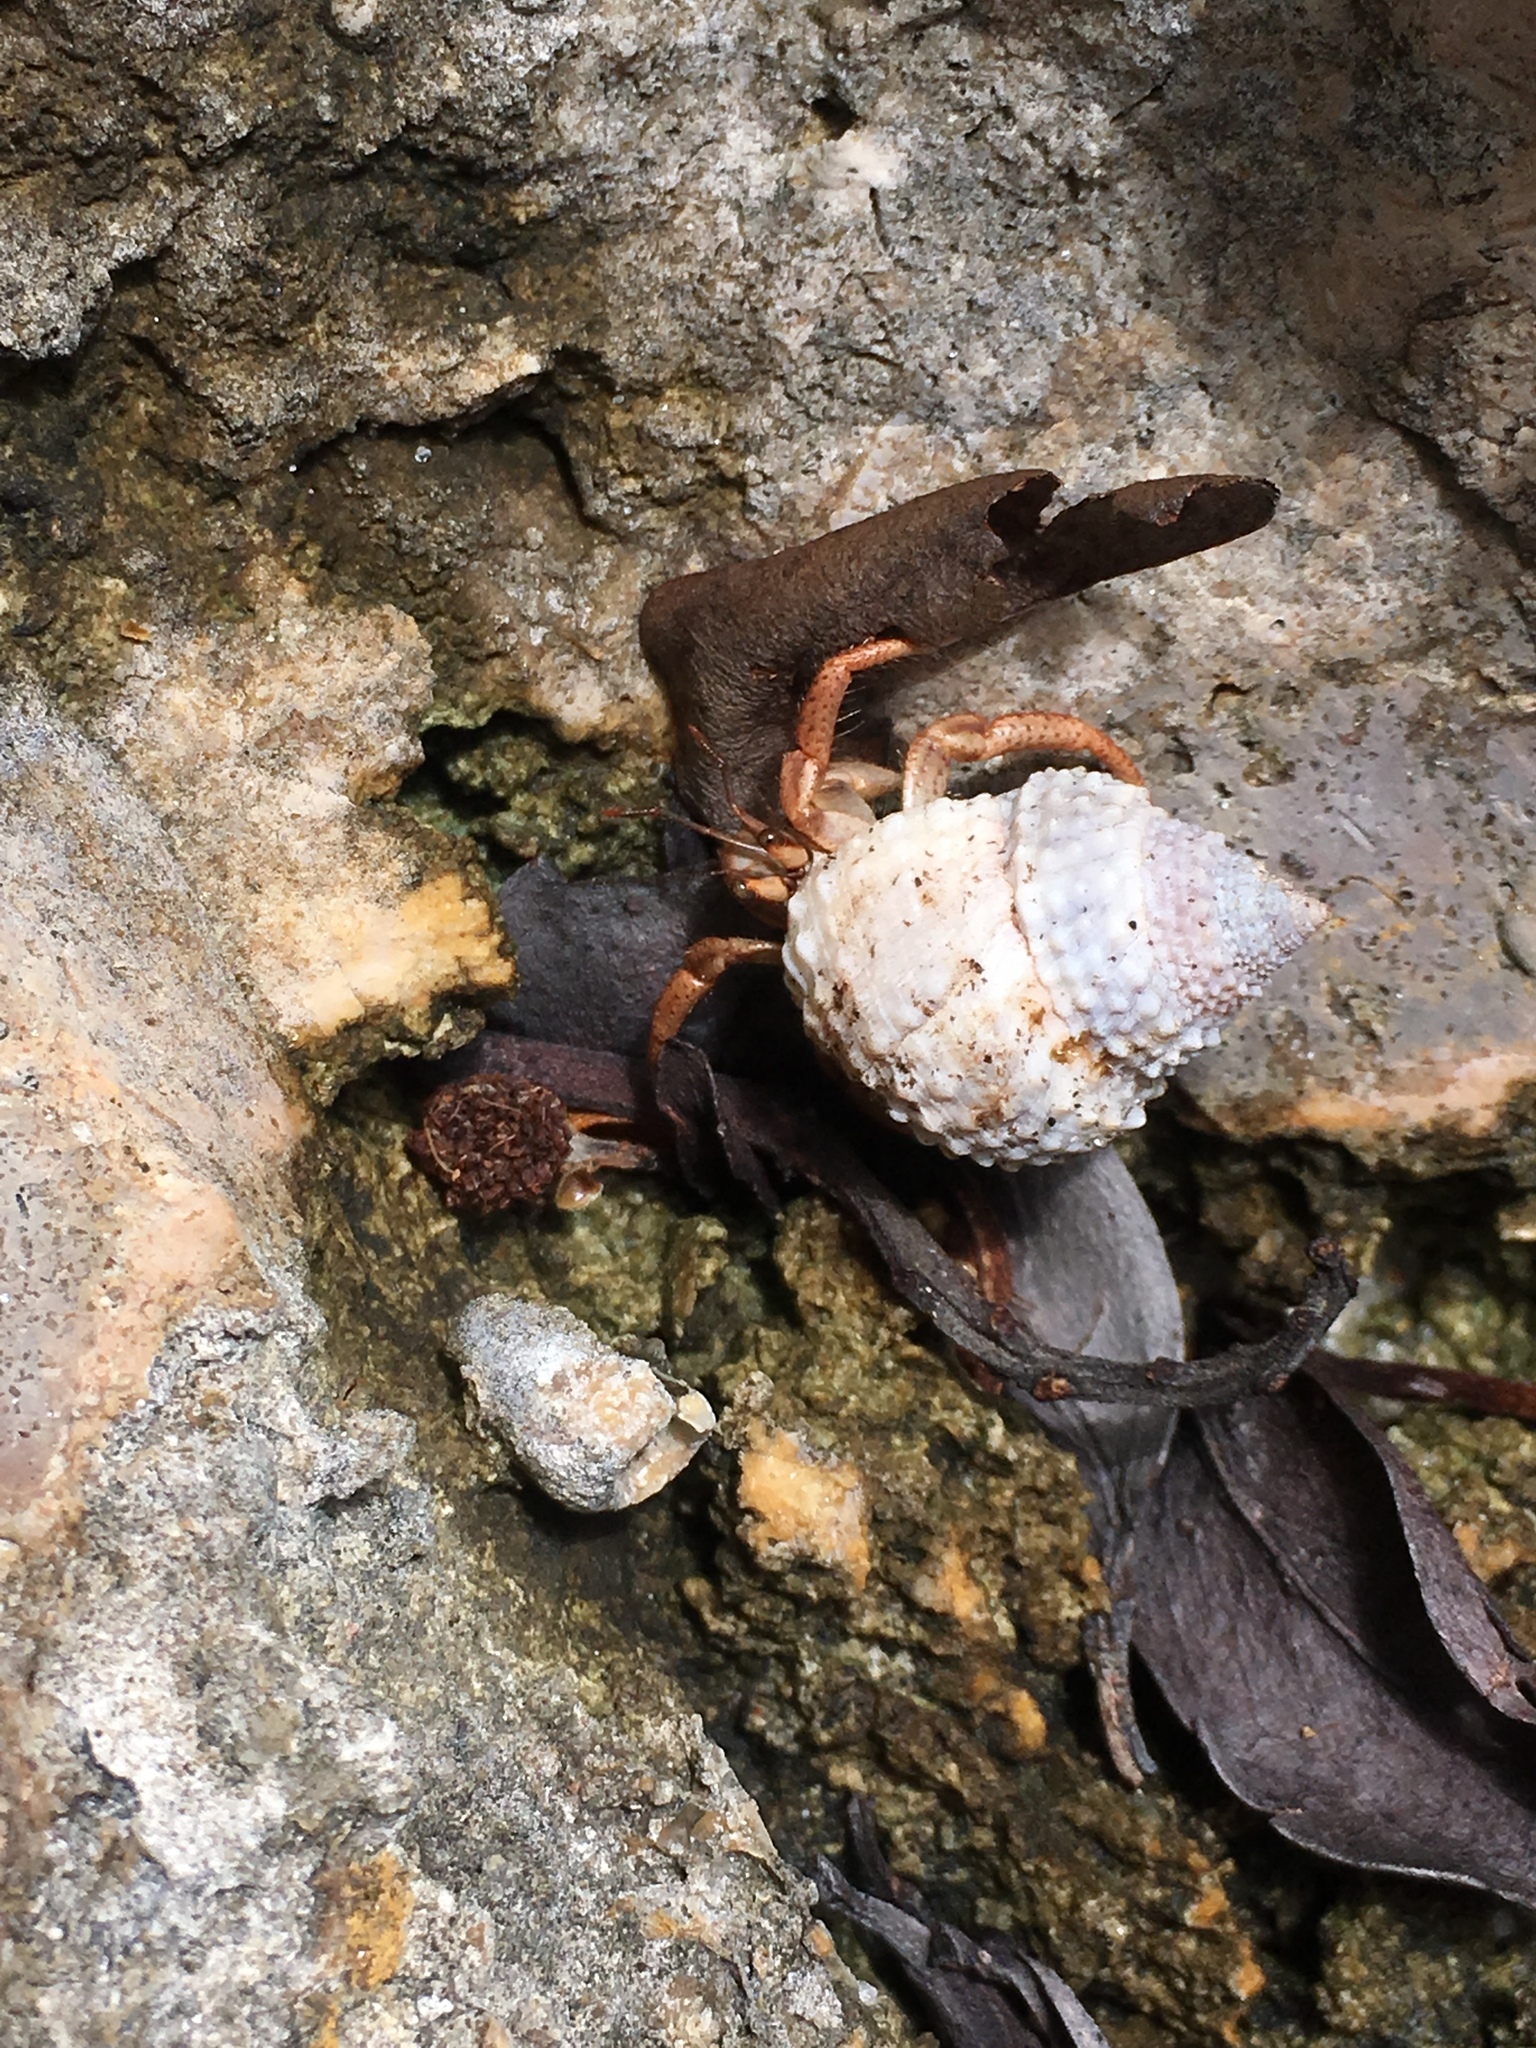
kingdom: Animalia
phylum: Mollusca
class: Gastropoda
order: Littorinimorpha
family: Littorinidae
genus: Cenchritis
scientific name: Cenchritis muricatus
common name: Beaded periwinkle
